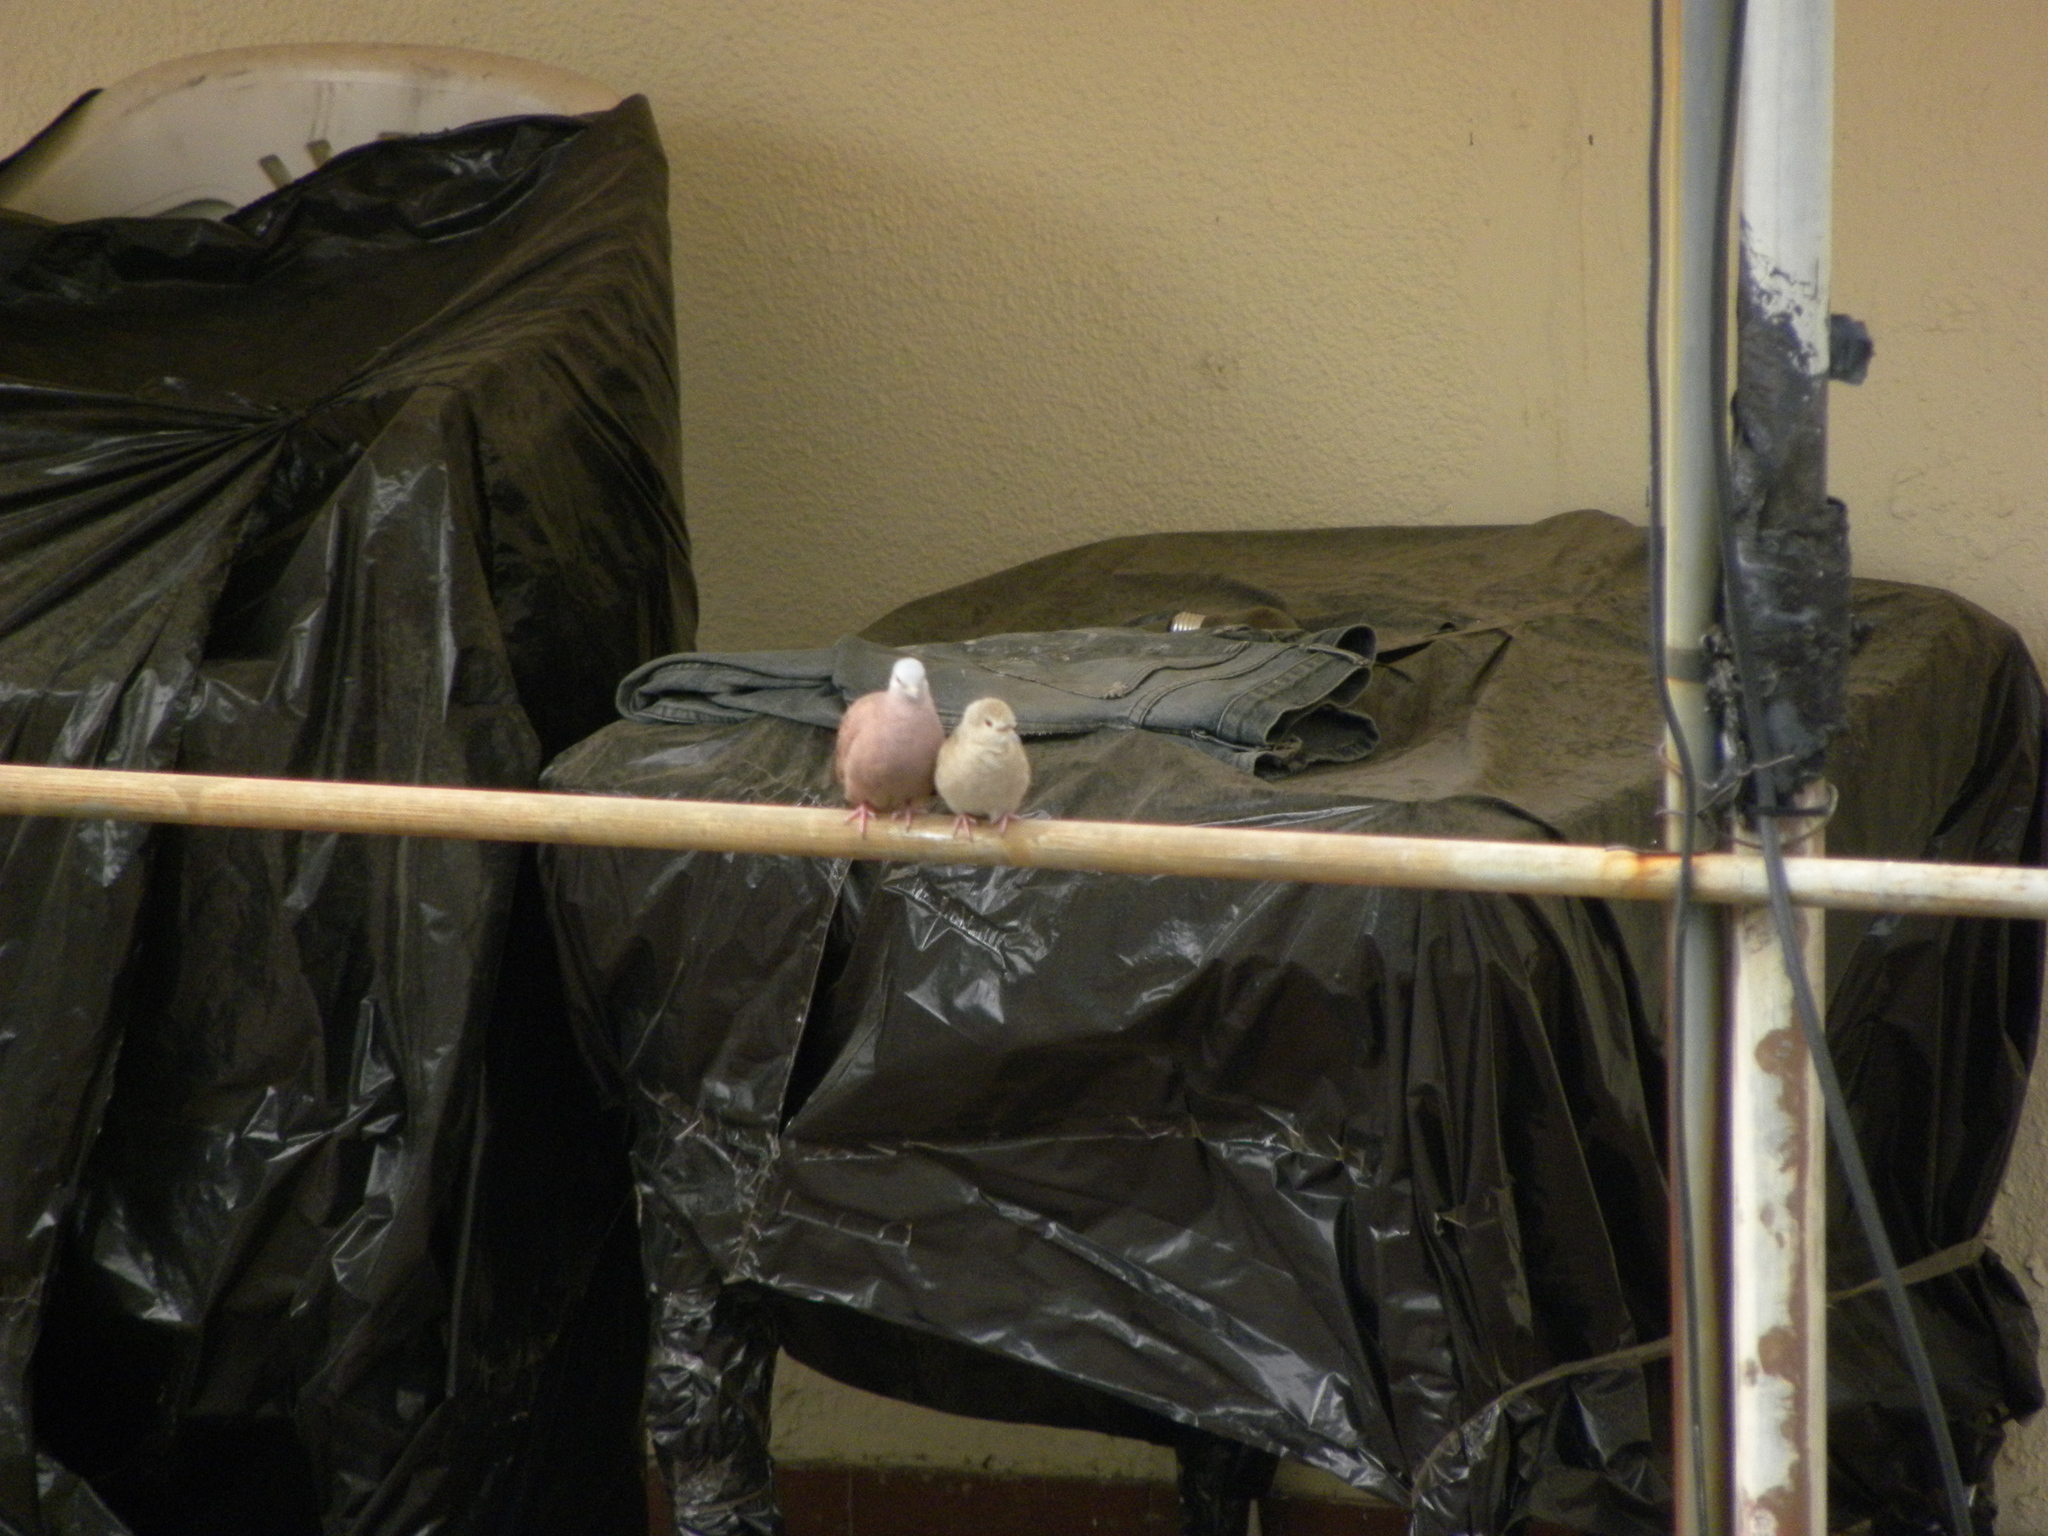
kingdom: Animalia
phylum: Chordata
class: Aves
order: Columbiformes
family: Columbidae
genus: Columbina
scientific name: Columbina talpacoti
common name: Ruddy ground dove
